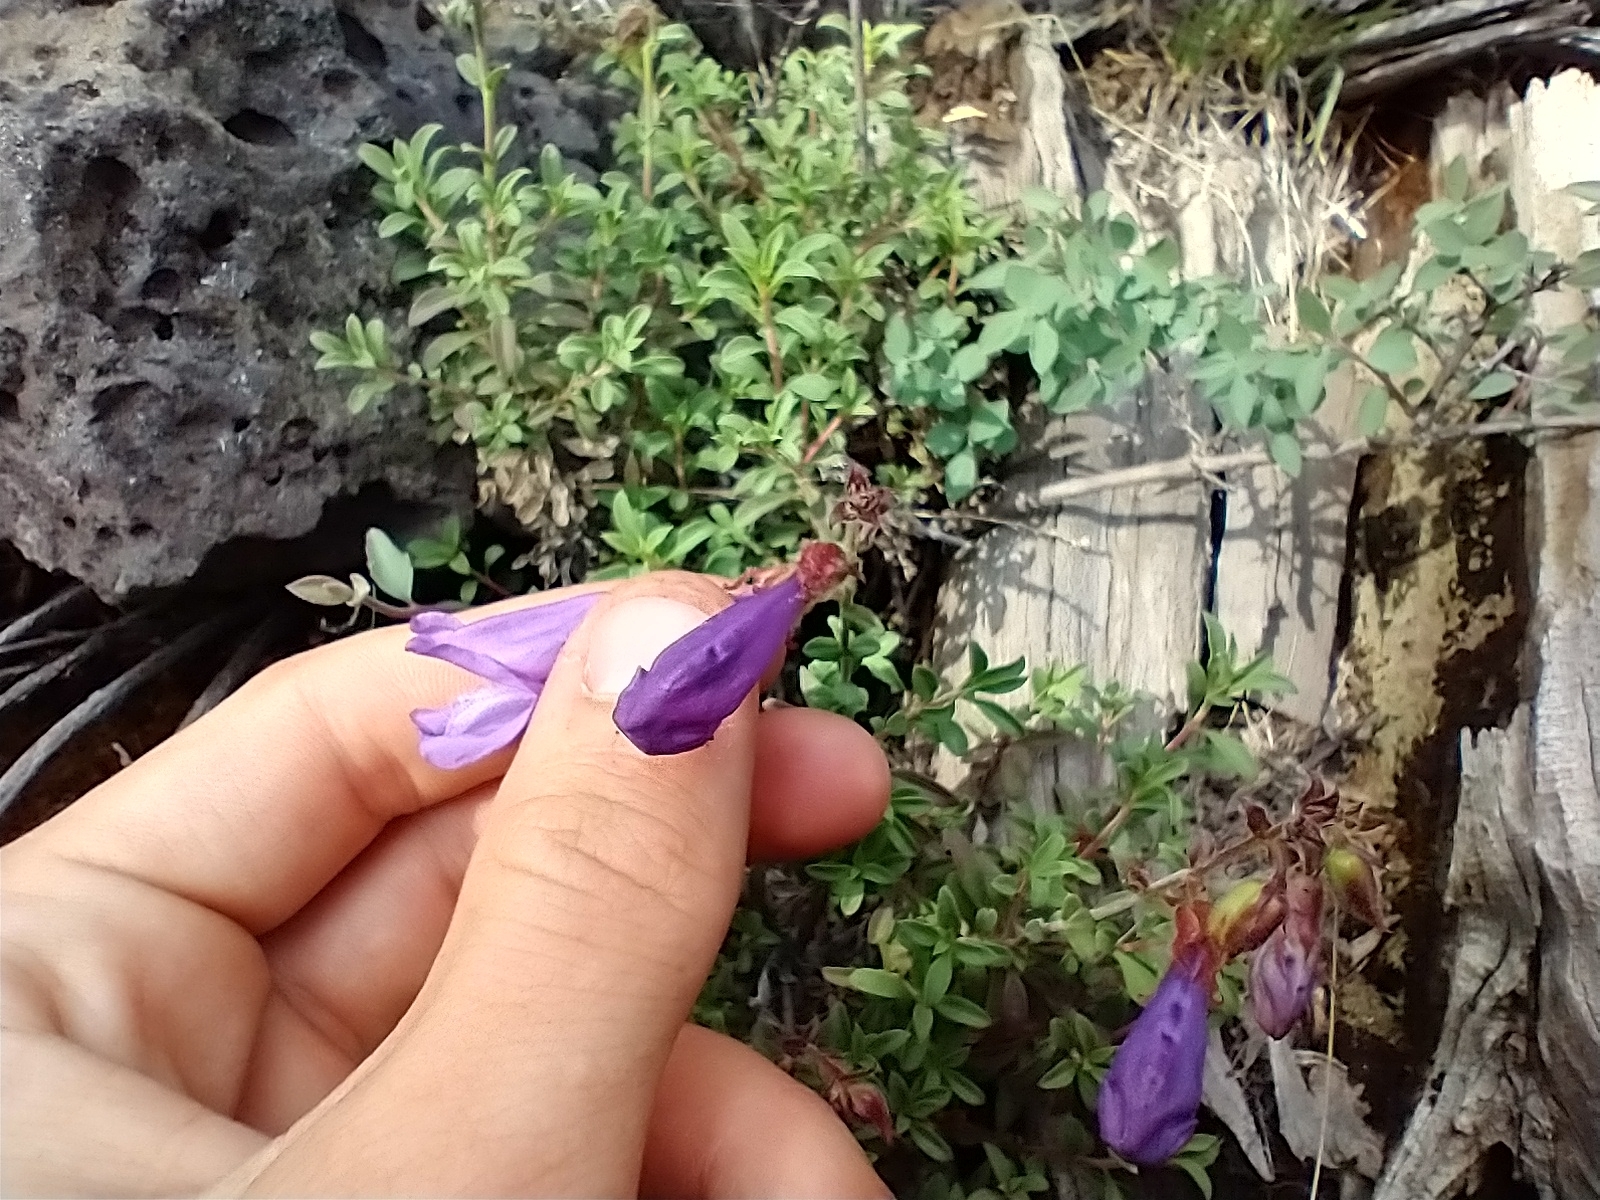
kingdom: Plantae
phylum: Tracheophyta
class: Magnoliopsida
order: Lamiales
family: Plantaginaceae
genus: Penstemon
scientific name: Penstemon davidsonii
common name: Davidson's penstemon
